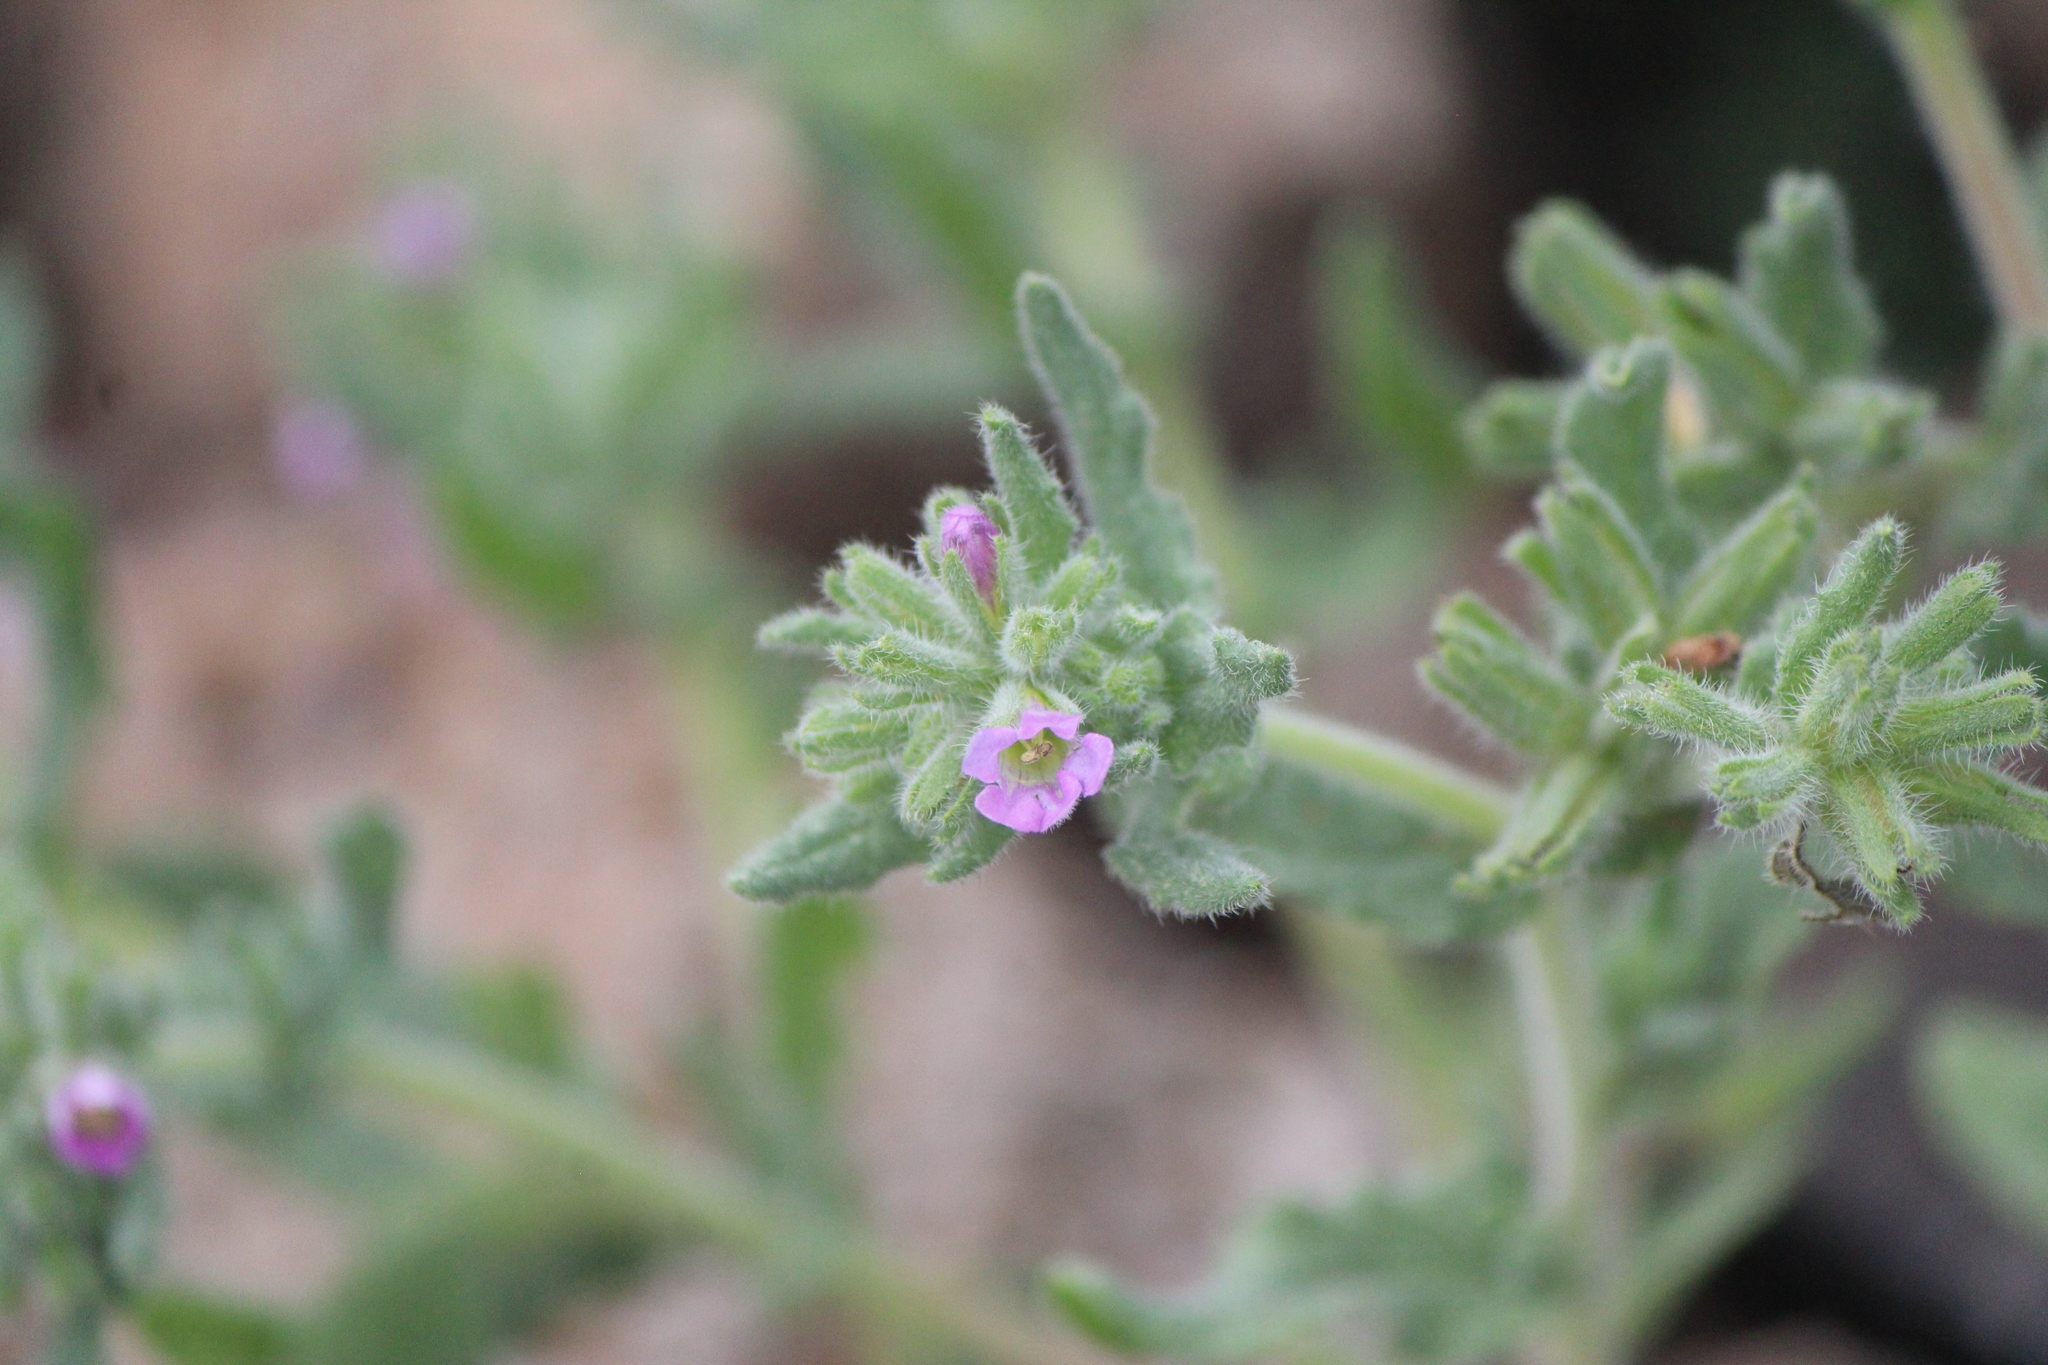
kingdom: Plantae
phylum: Tracheophyta
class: Magnoliopsida
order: Boraginales
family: Namaceae
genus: Nama
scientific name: Nama hispida
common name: Bristly nama
